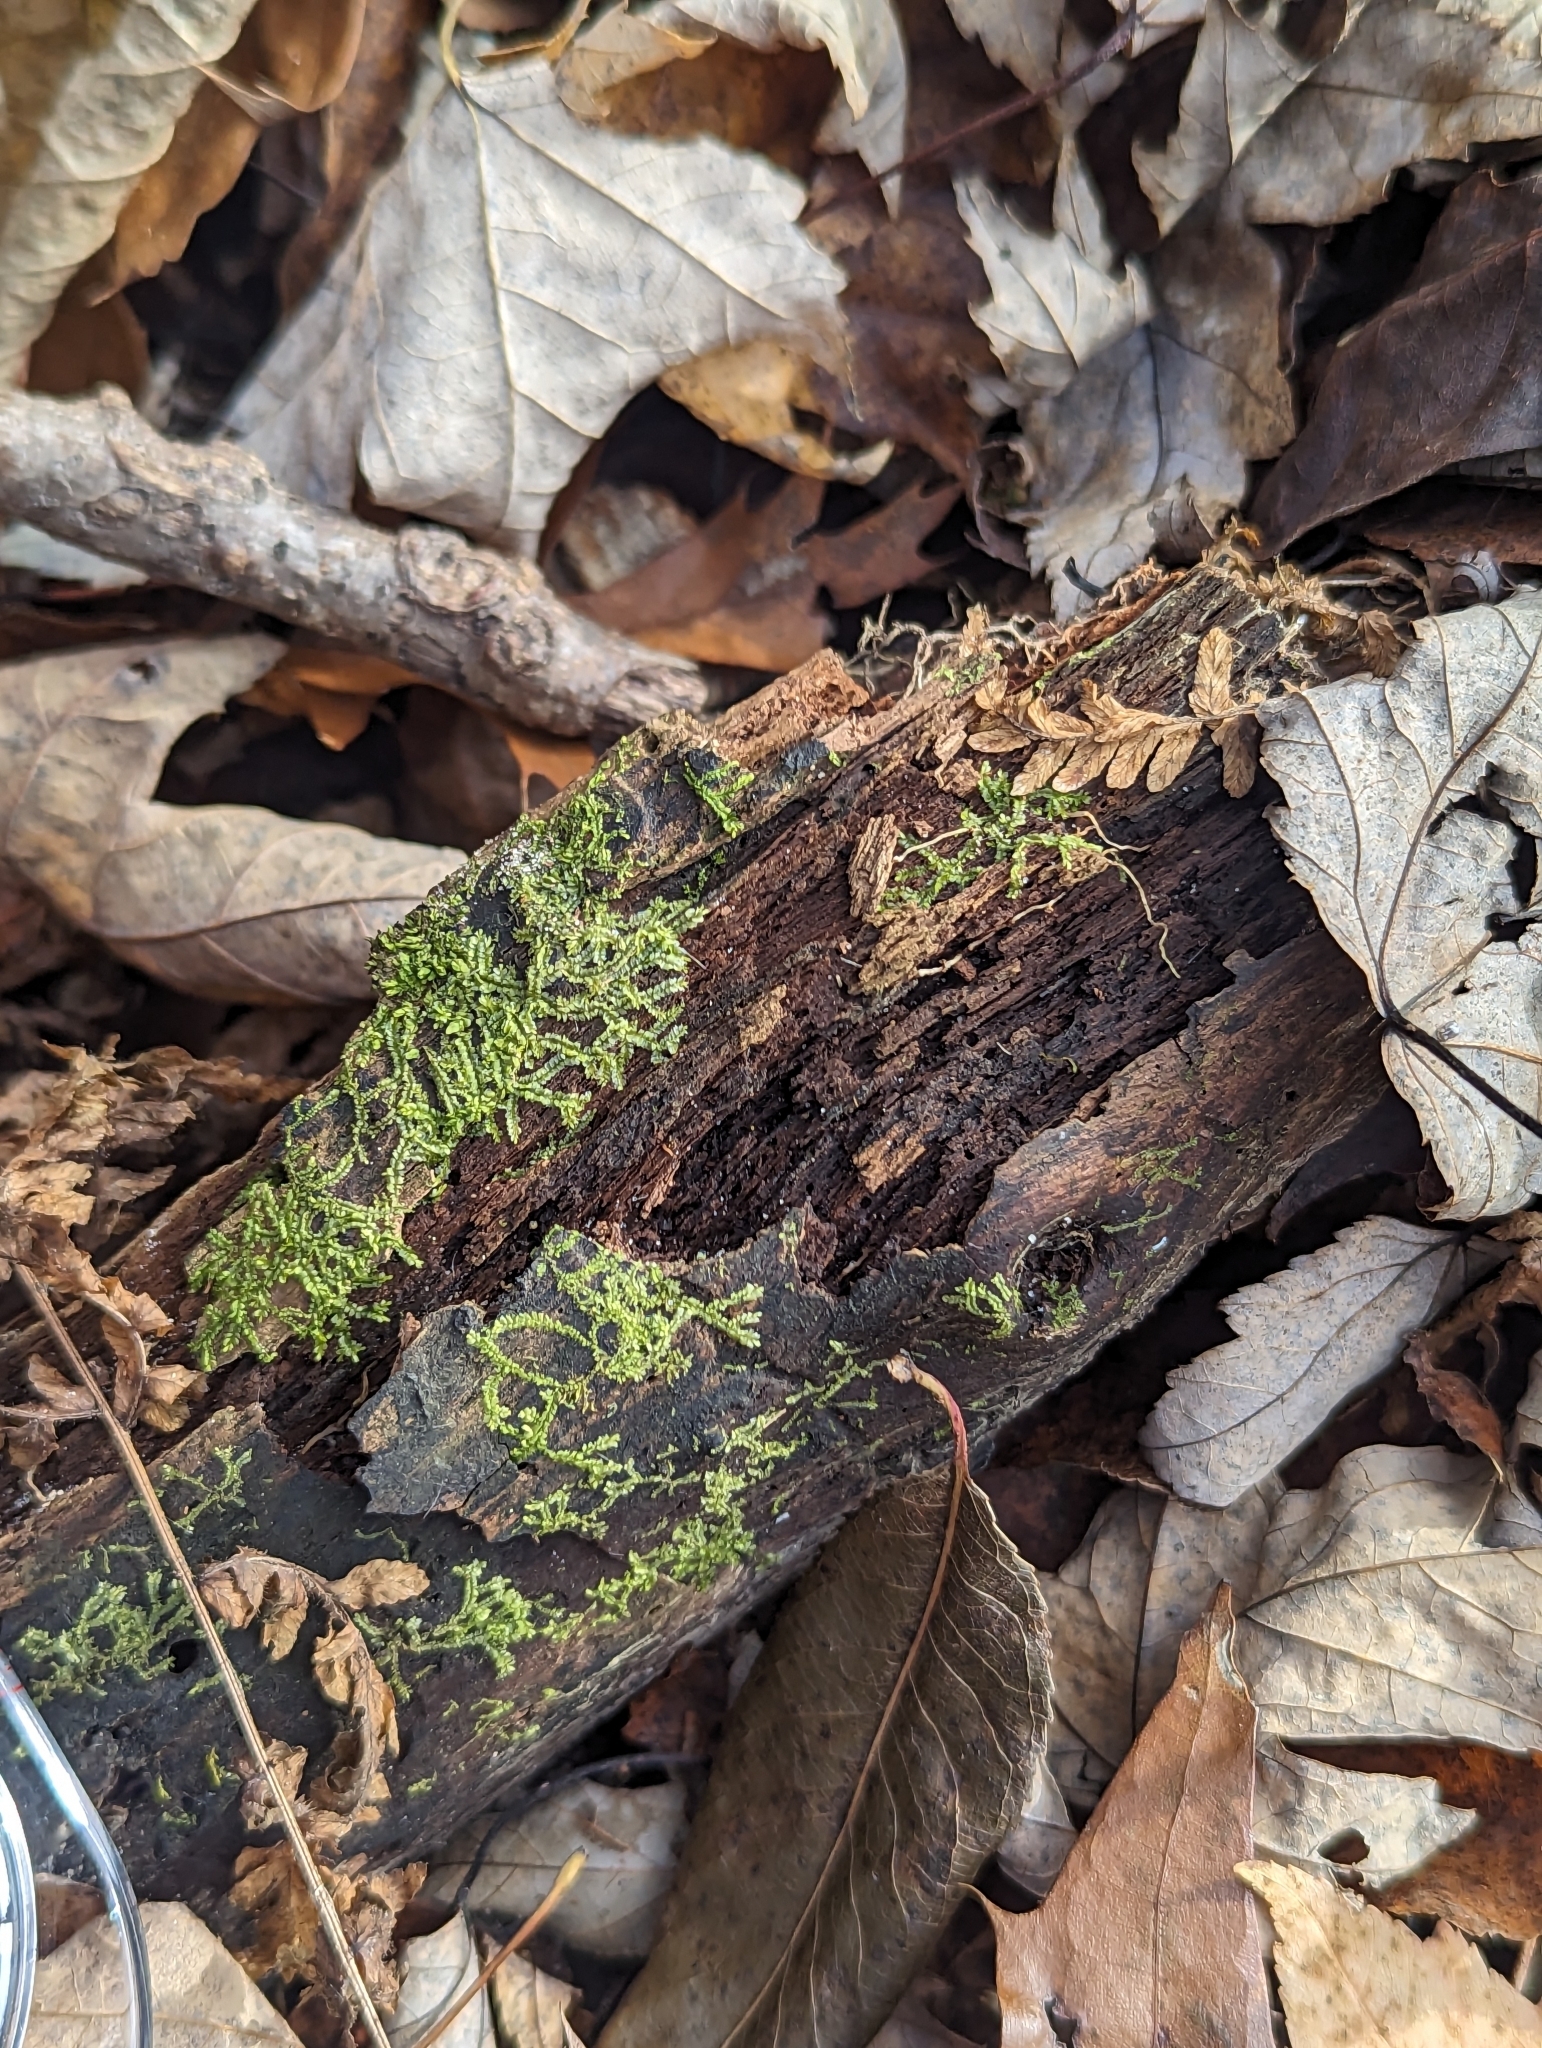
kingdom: Plantae
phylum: Marchantiophyta
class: Jungermanniopsida
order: Jungermanniales
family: Lophocoleaceae
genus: Lophocolea
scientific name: Lophocolea heterophylla
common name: Variable-leaved crestwort
